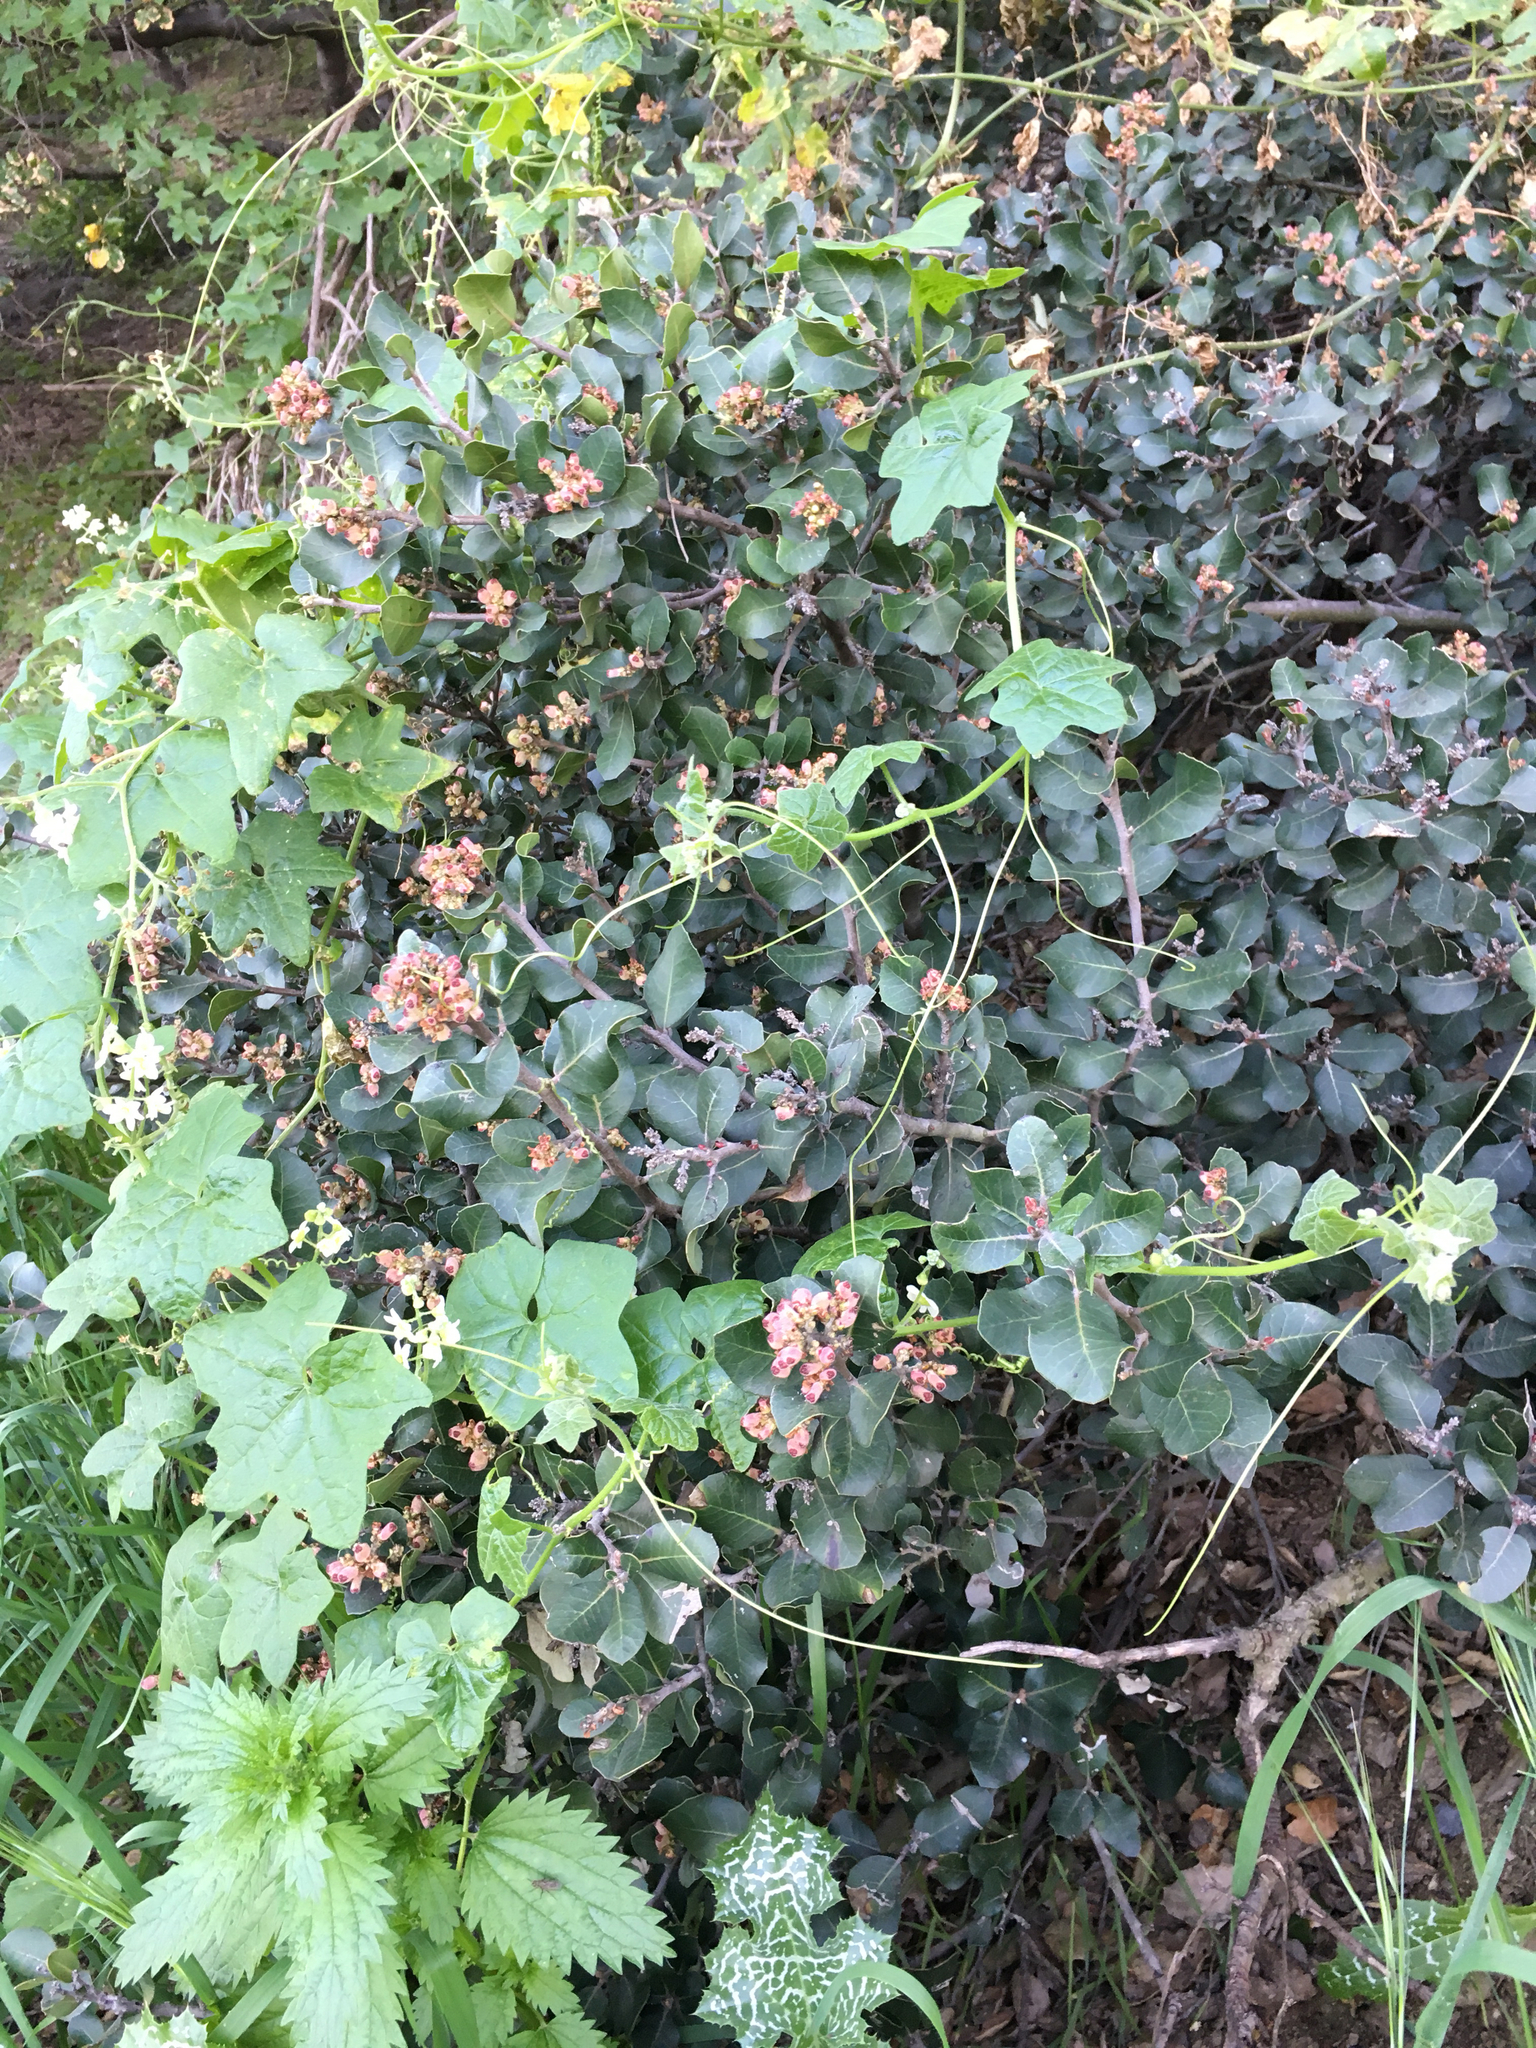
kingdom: Plantae
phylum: Tracheophyta
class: Magnoliopsida
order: Sapindales
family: Anacardiaceae
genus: Rhus
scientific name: Rhus integrifolia
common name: Lemonade sumac
